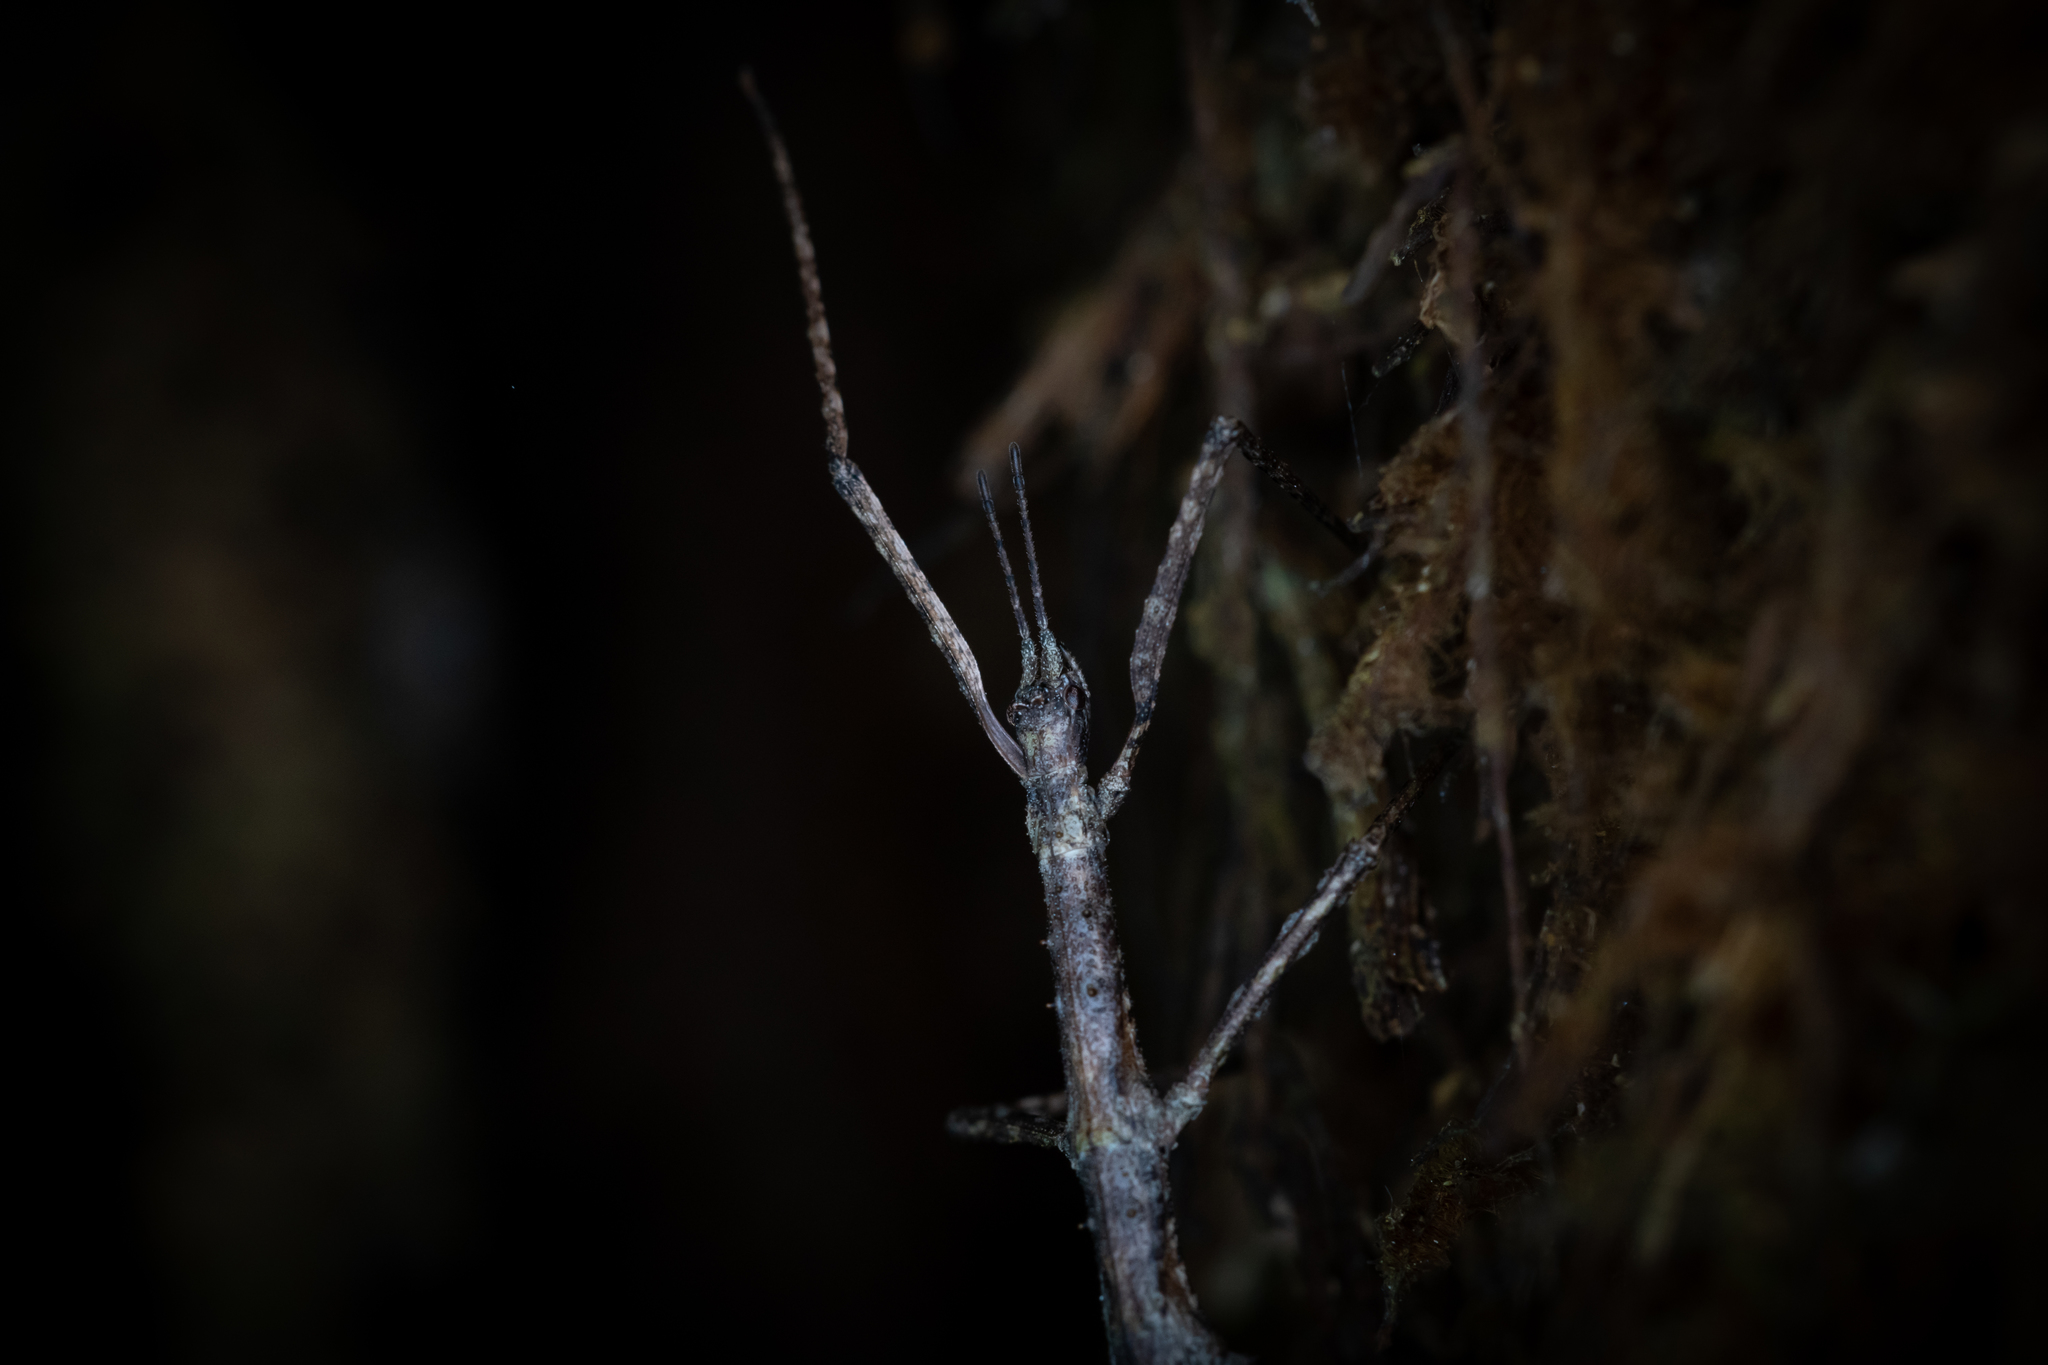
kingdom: Animalia
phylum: Arthropoda
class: Insecta
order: Phasmida
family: Phasmatidae
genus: Micrarchus
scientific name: Micrarchus hystriculeus
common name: The lesser spiny stick insect
